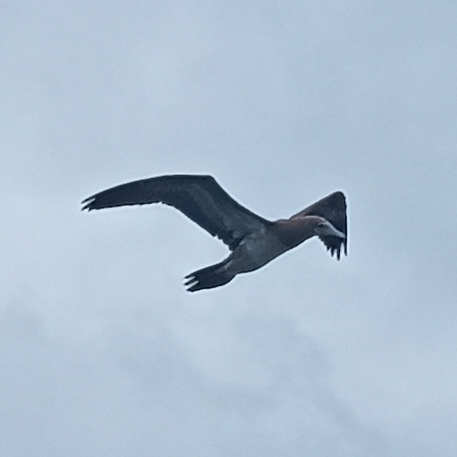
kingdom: Animalia
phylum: Chordata
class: Aves
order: Suliformes
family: Sulidae
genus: Sula
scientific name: Sula leucogaster
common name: Brown booby
